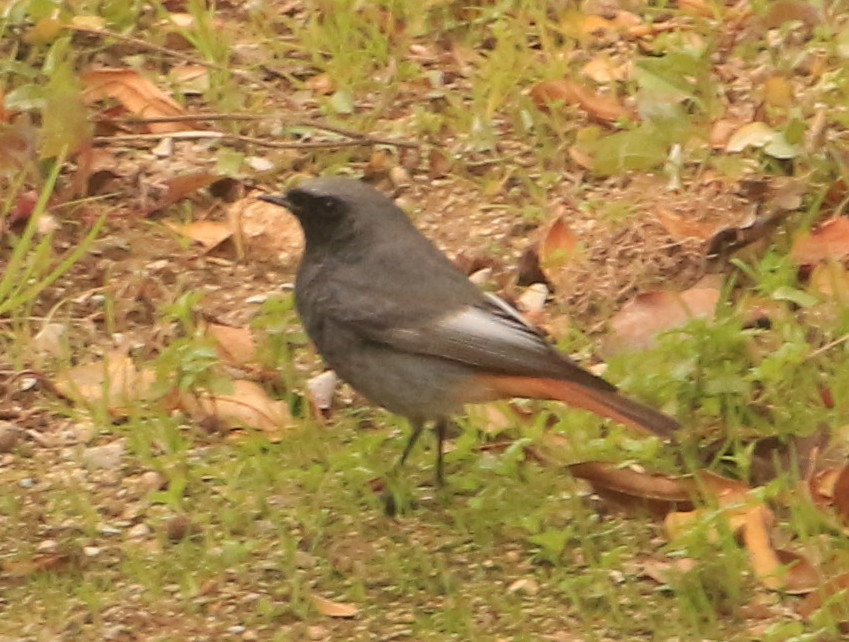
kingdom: Animalia
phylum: Chordata
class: Aves
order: Passeriformes
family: Muscicapidae
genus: Phoenicurus
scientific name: Phoenicurus ochruros
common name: Black redstart
